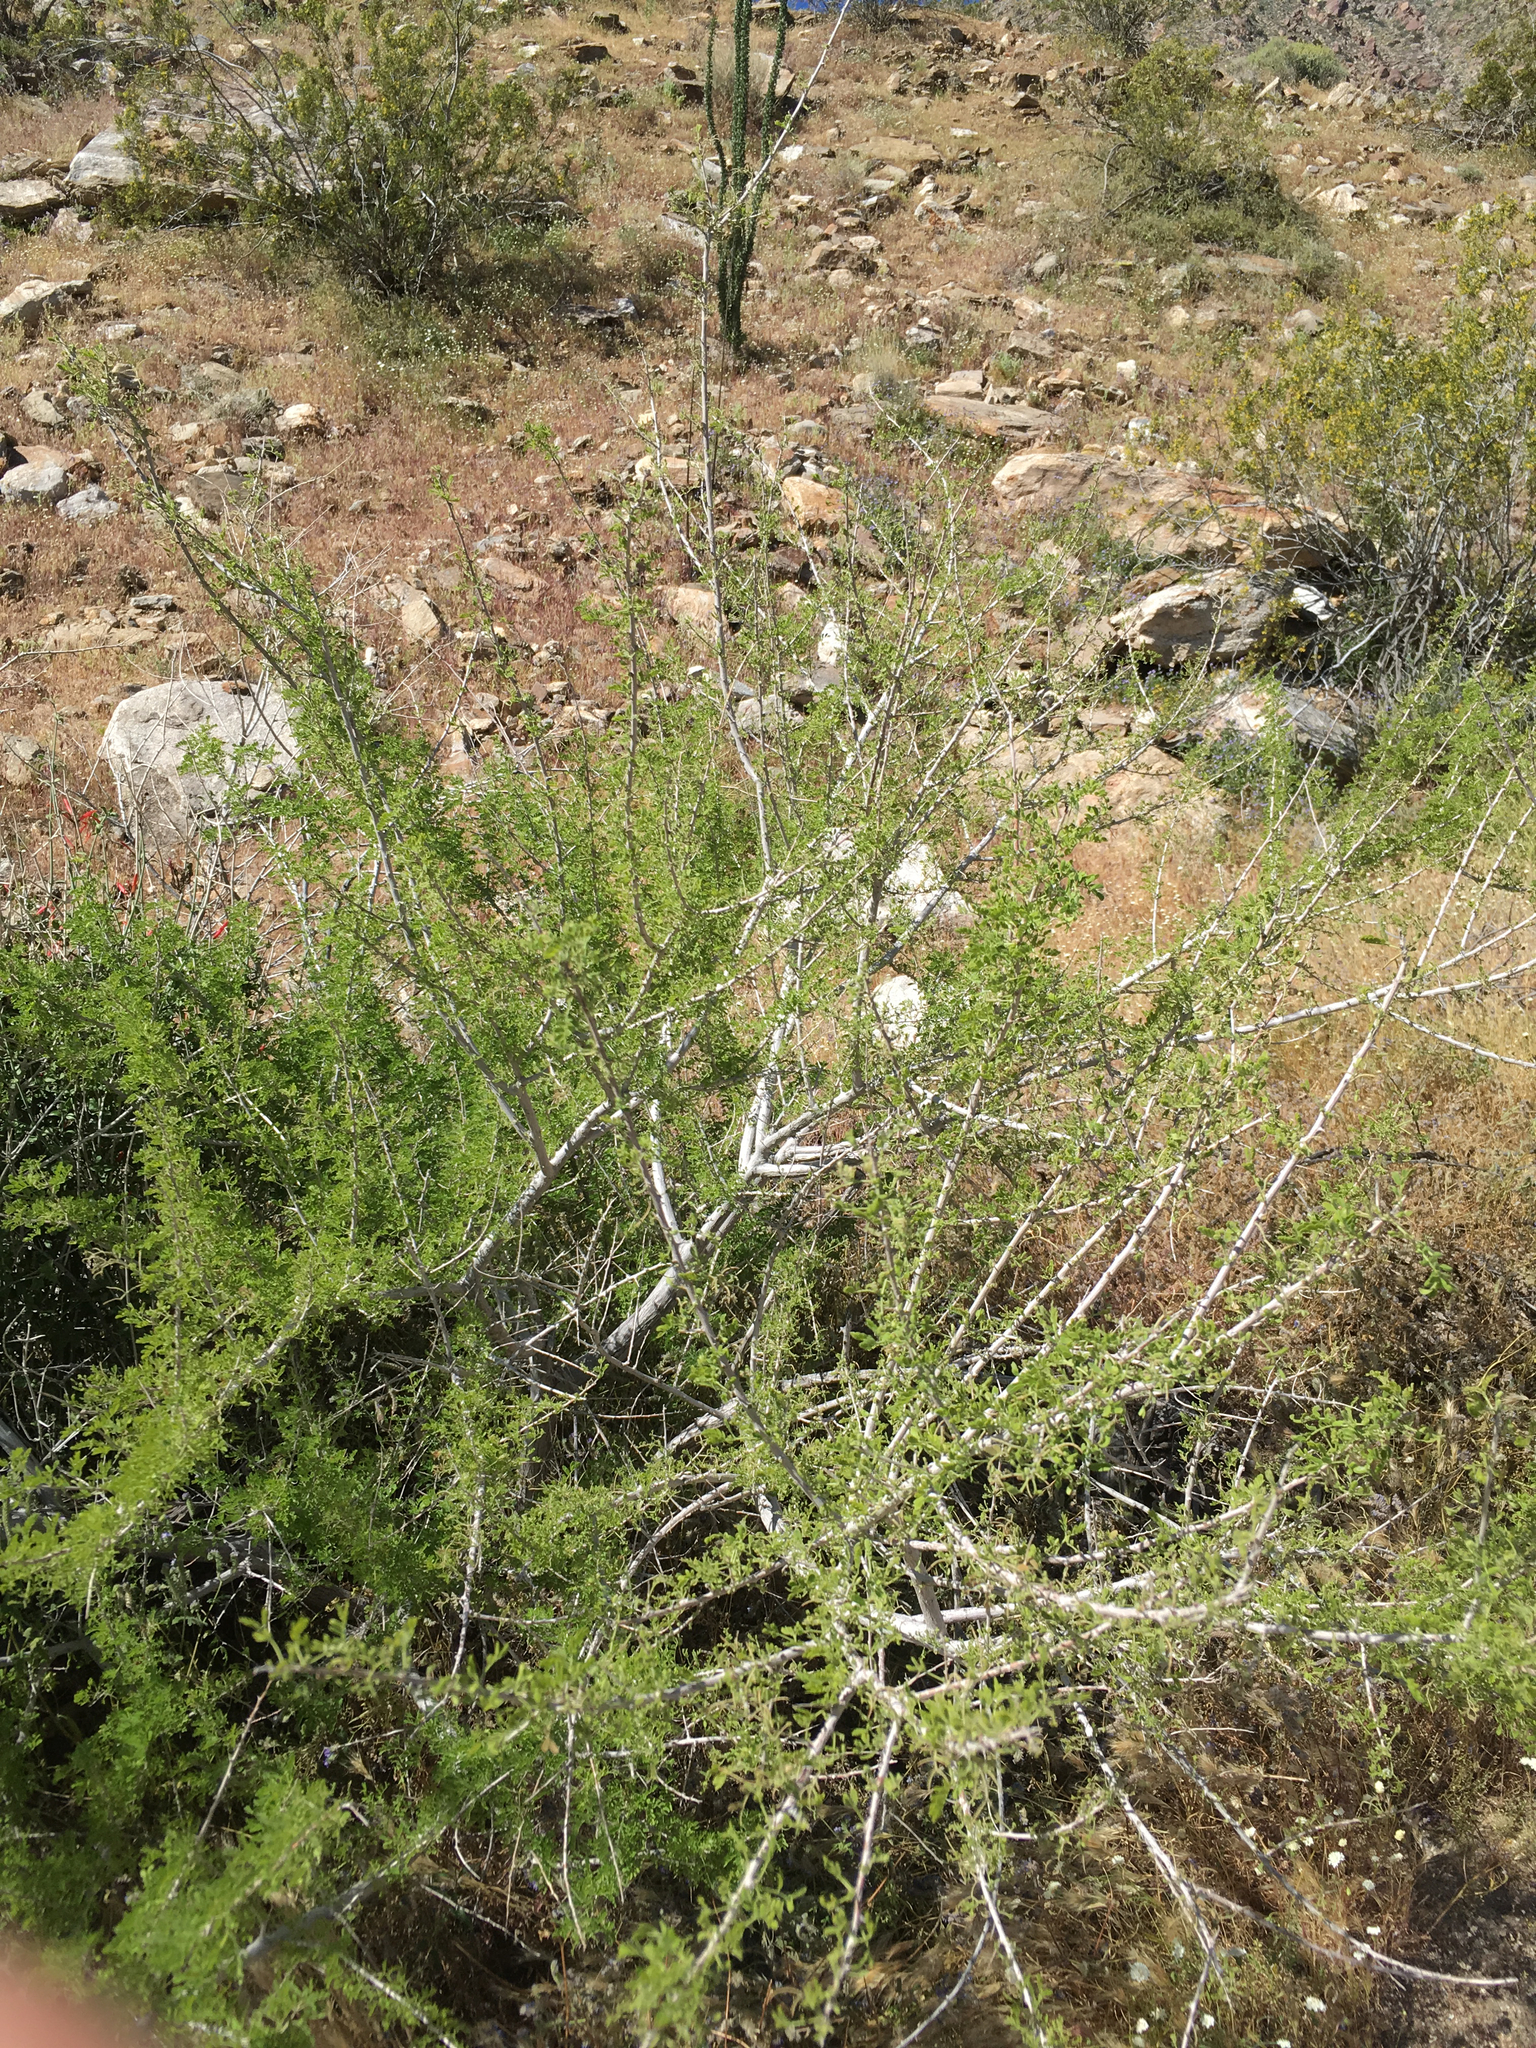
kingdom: Plantae
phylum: Tracheophyta
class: Magnoliopsida
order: Fabales
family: Fabaceae
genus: Senegalia
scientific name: Senegalia greggii
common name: Texas-mimosa
